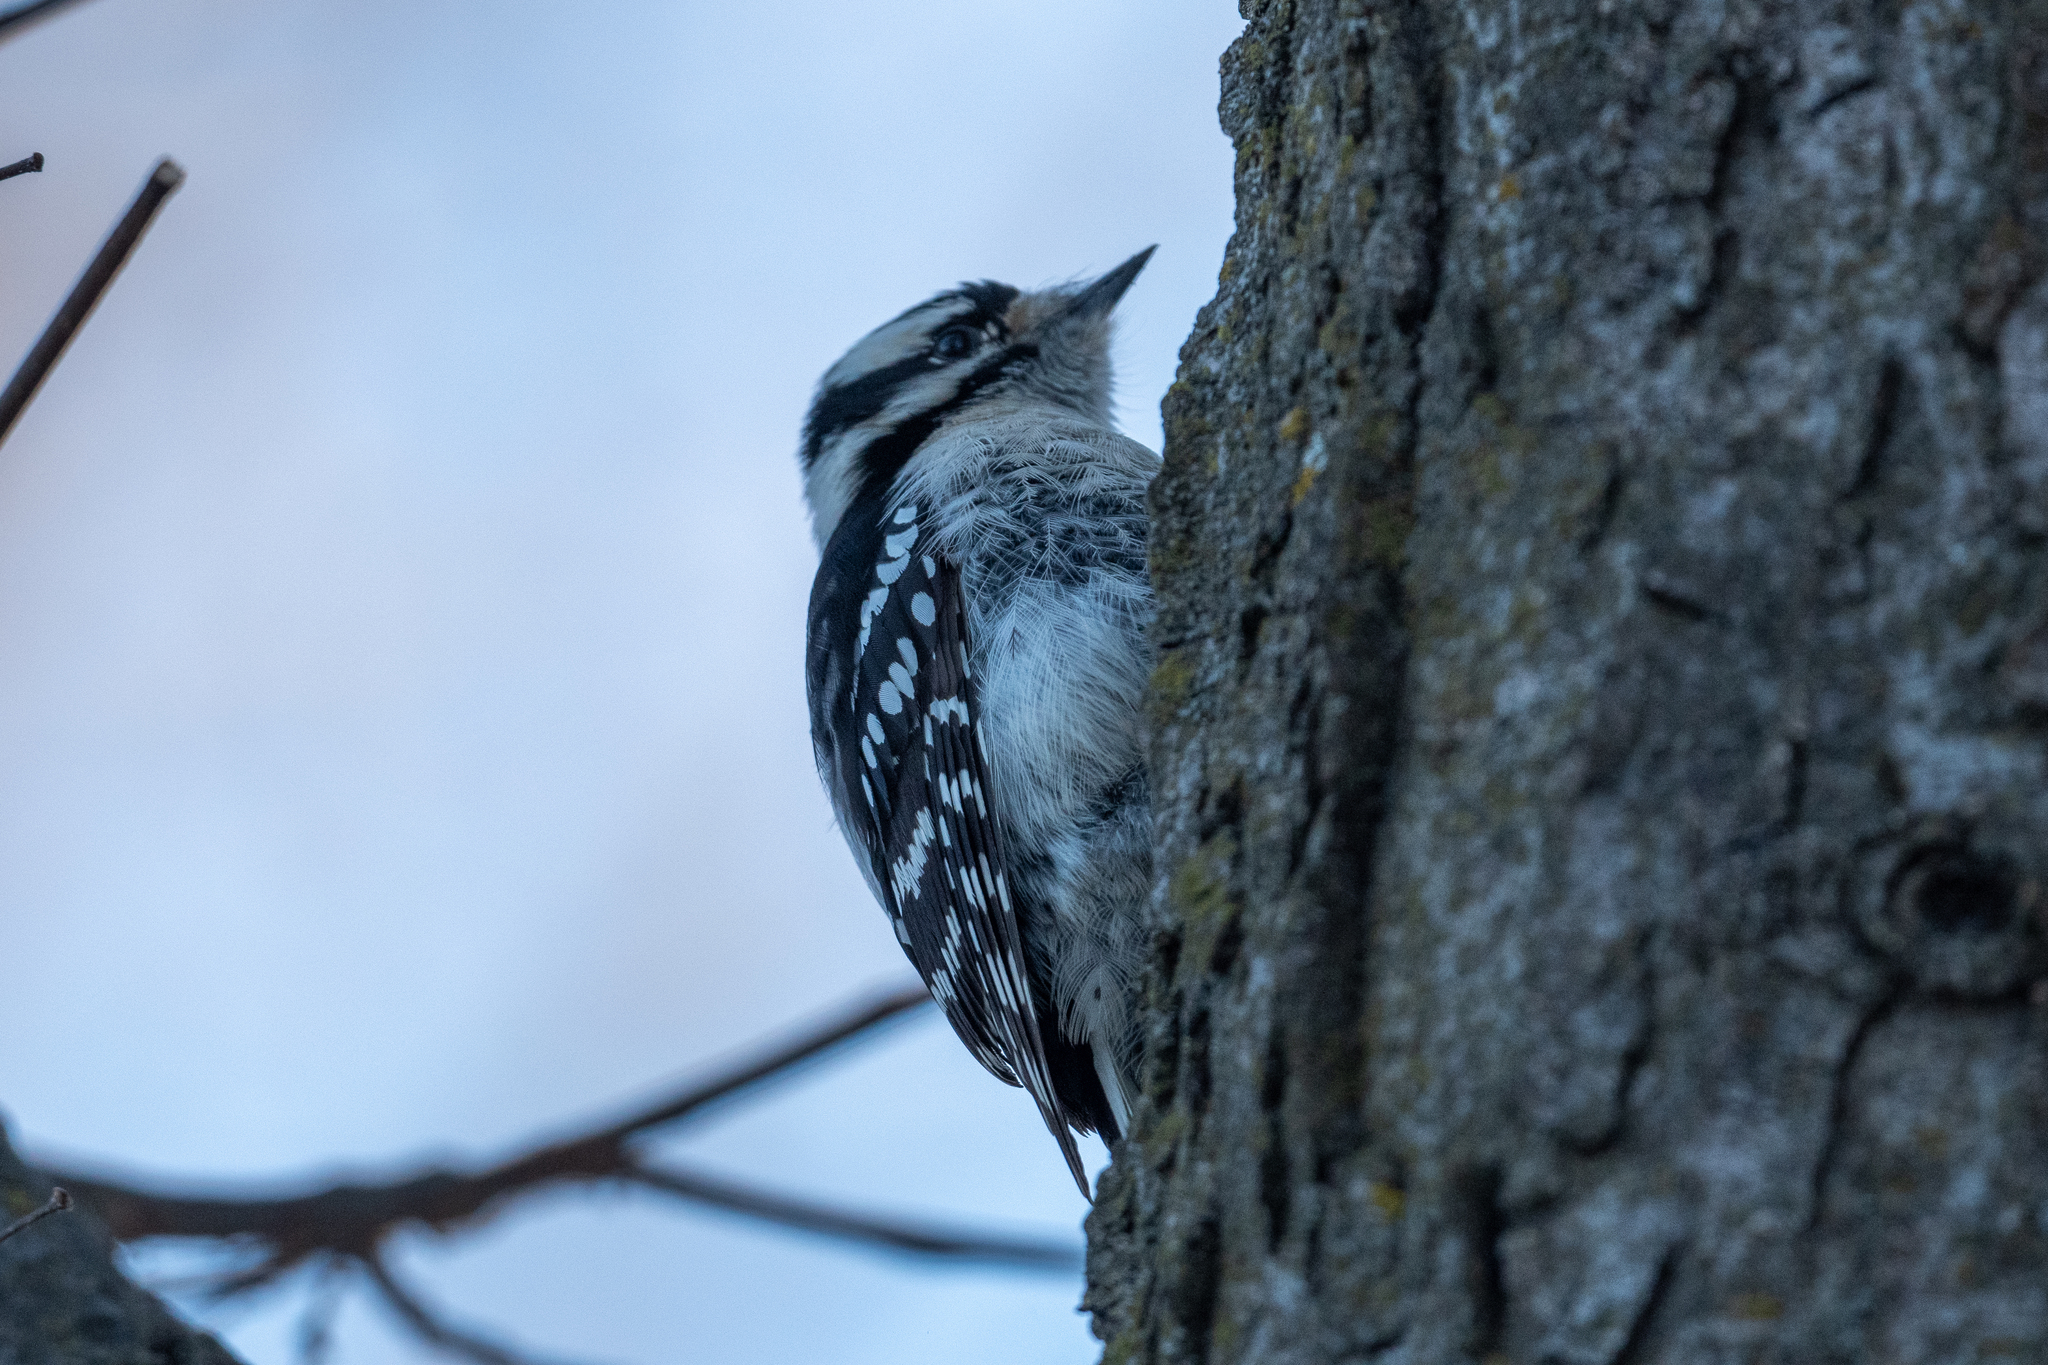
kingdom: Animalia
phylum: Chordata
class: Aves
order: Piciformes
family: Picidae
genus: Dryobates
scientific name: Dryobates pubescens
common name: Downy woodpecker
